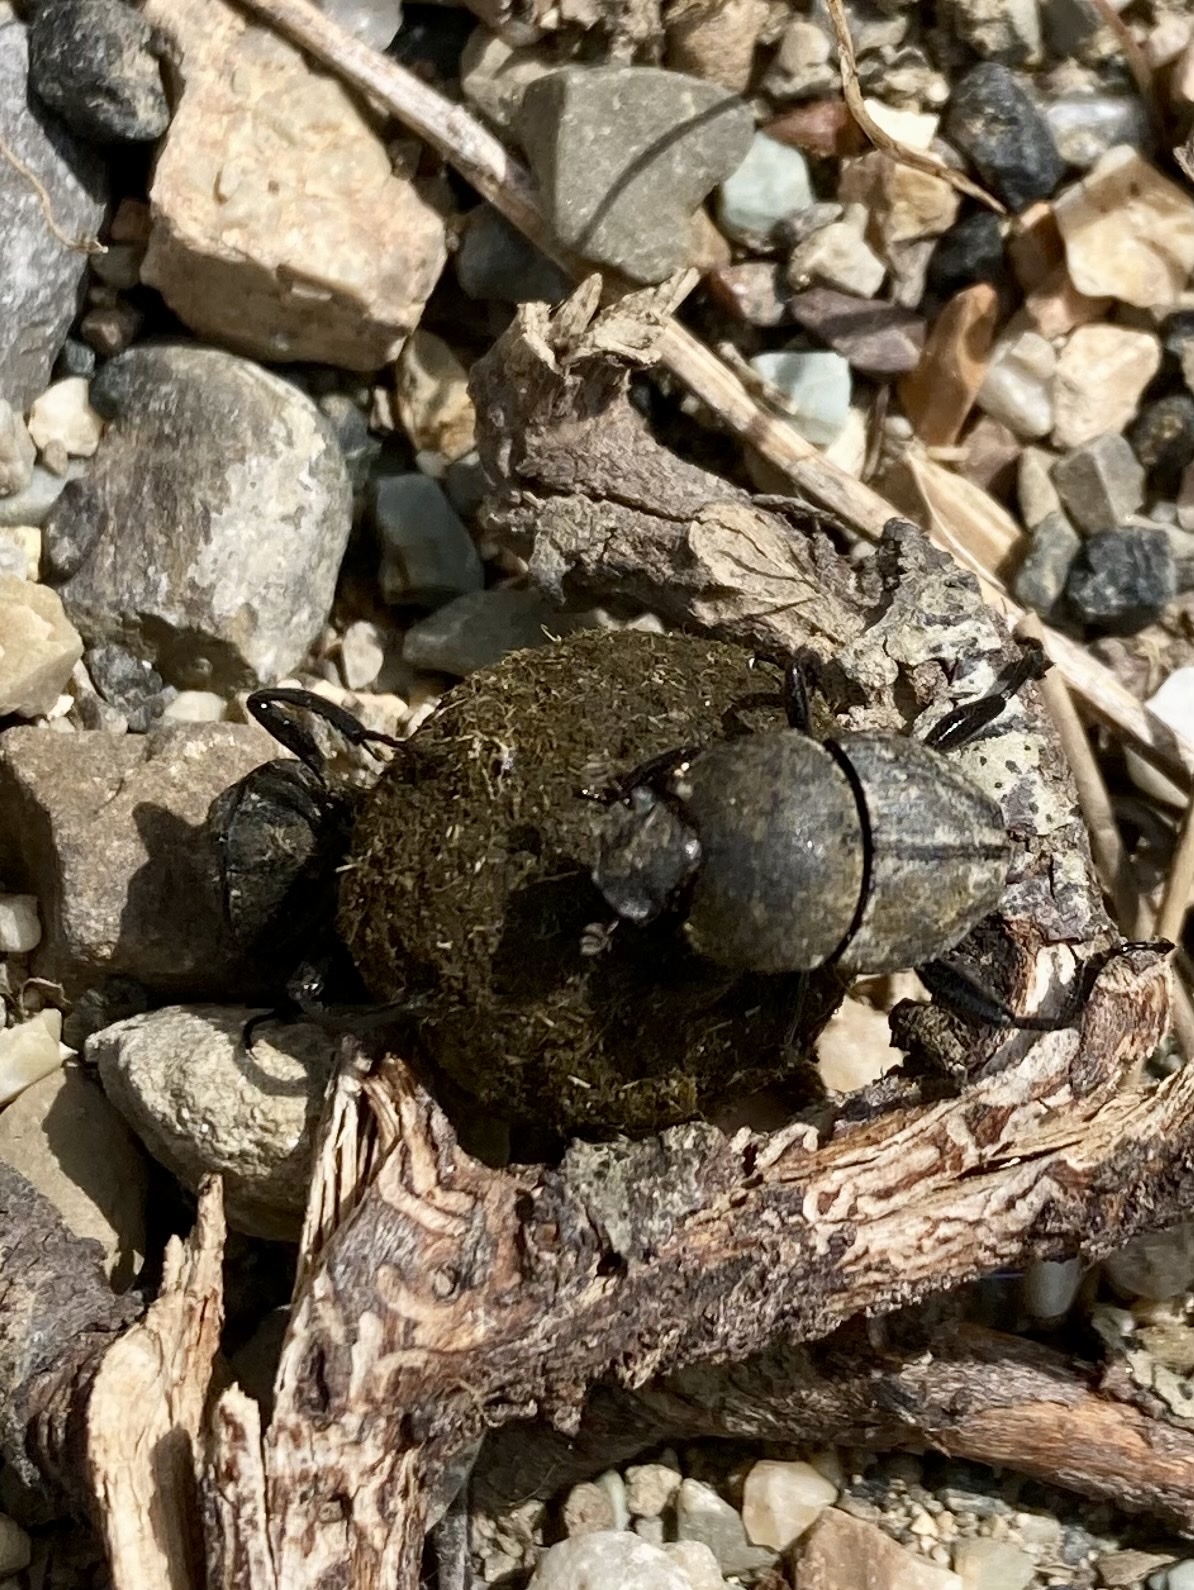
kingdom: Animalia
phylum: Arthropoda
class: Insecta
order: Coleoptera
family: Scarabaeidae
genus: Sisyphus
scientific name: Sisyphus schaefferi
